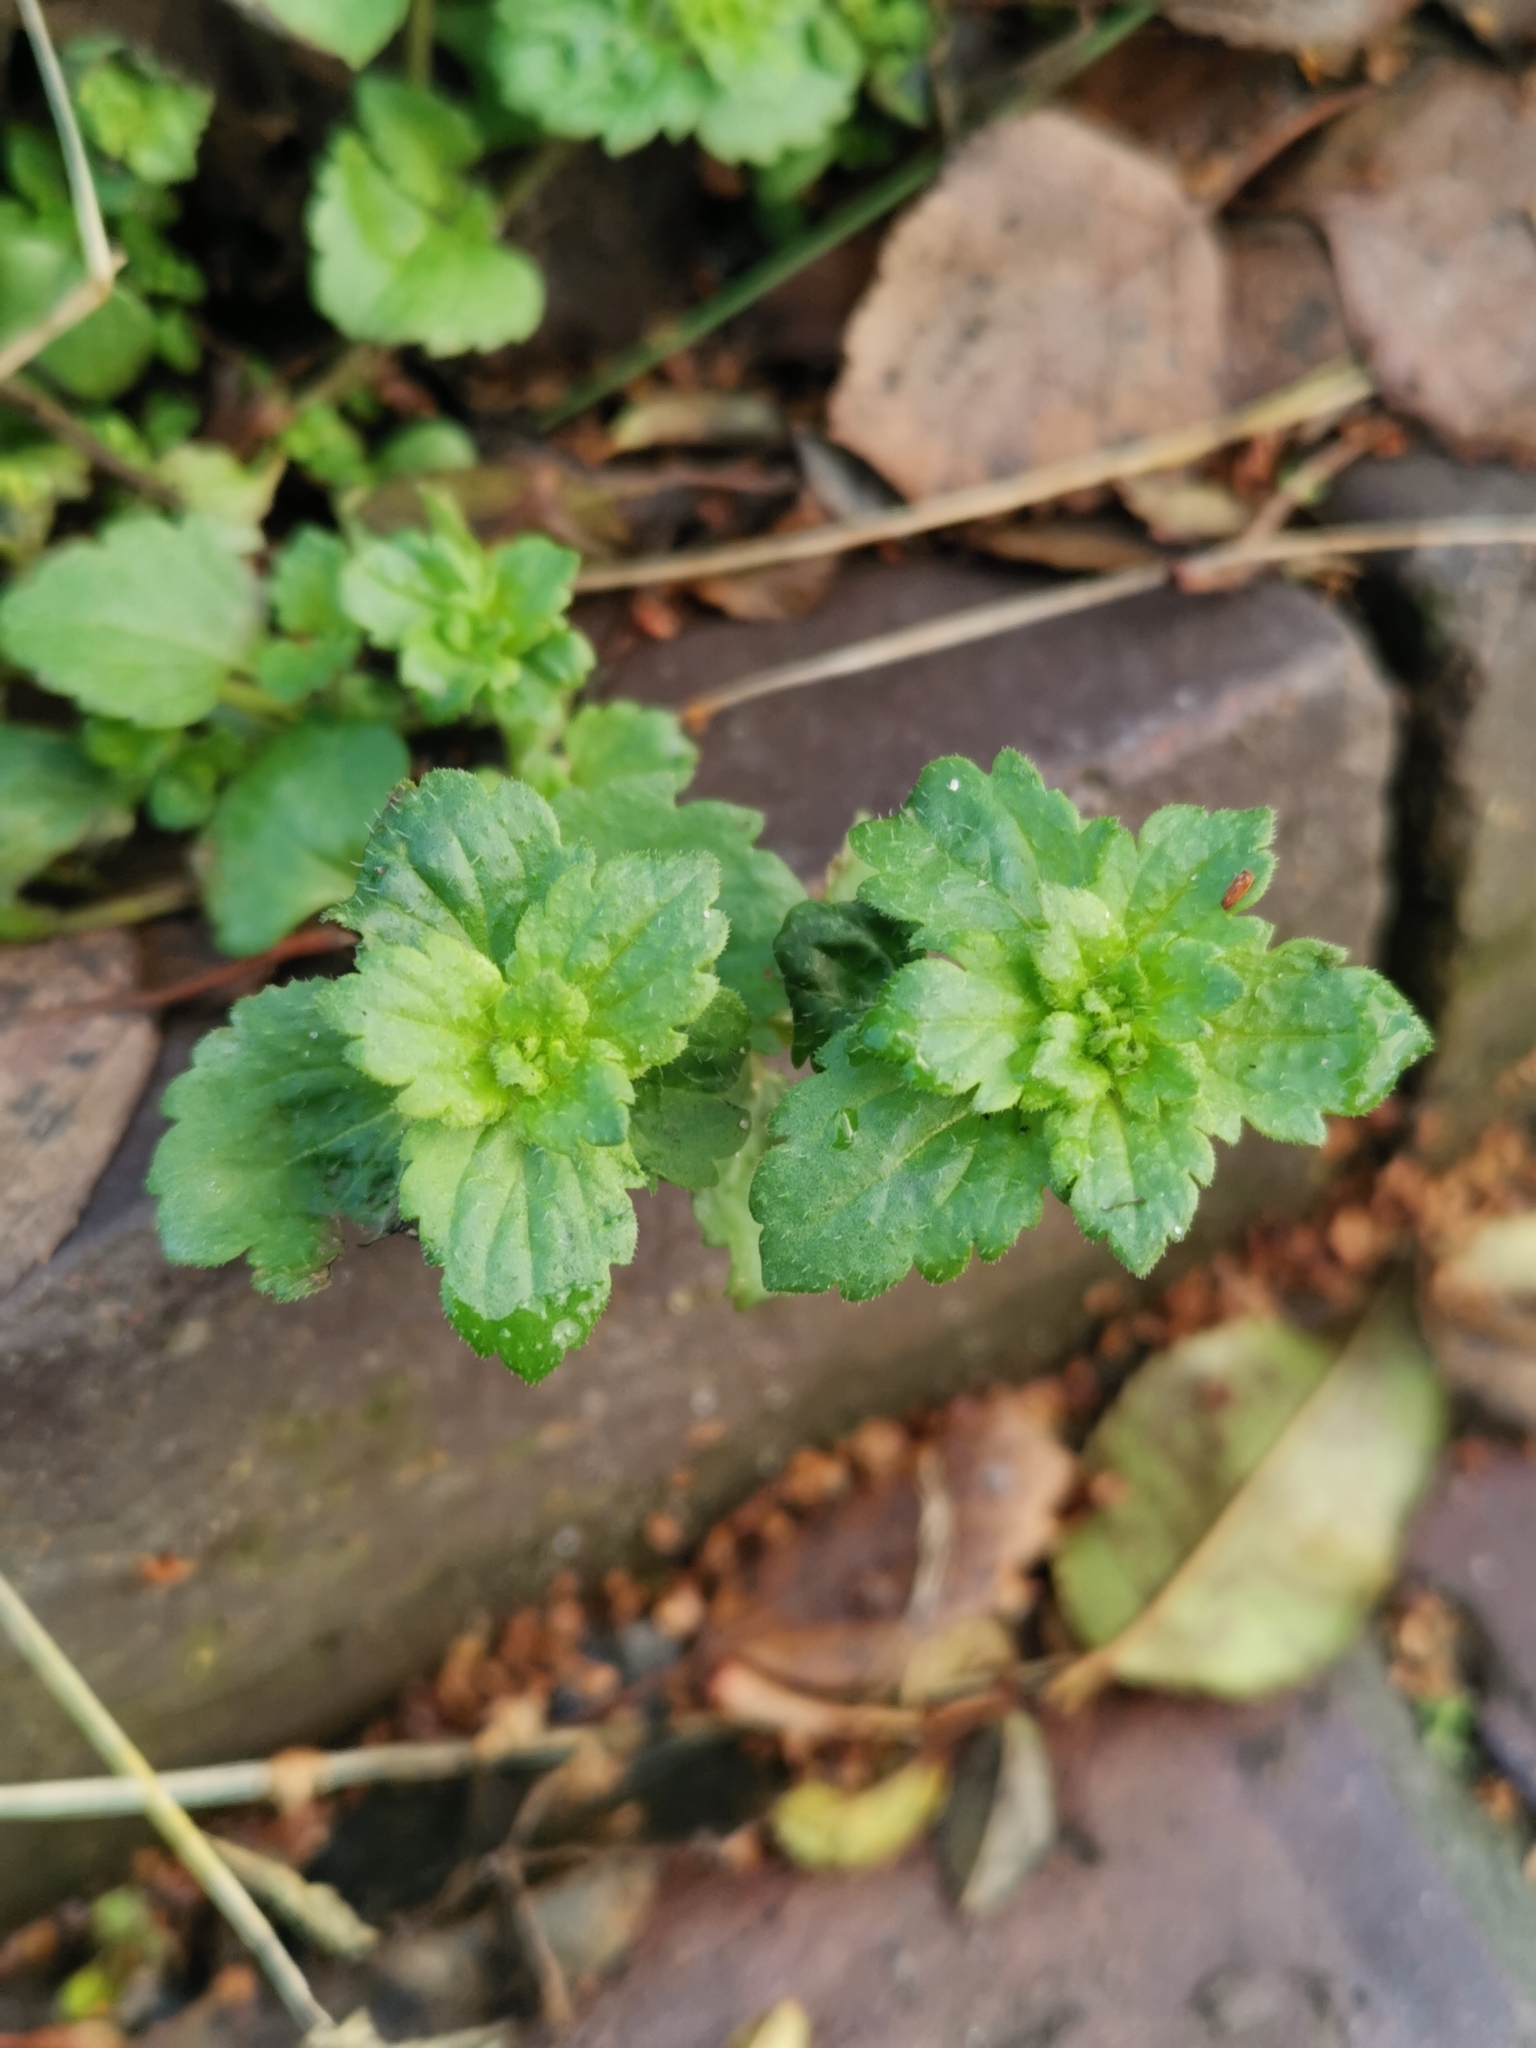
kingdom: Plantae
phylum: Tracheophyta
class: Magnoliopsida
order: Lamiales
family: Plantaginaceae
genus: Veronica
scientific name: Veronica persica
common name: Common field-speedwell
